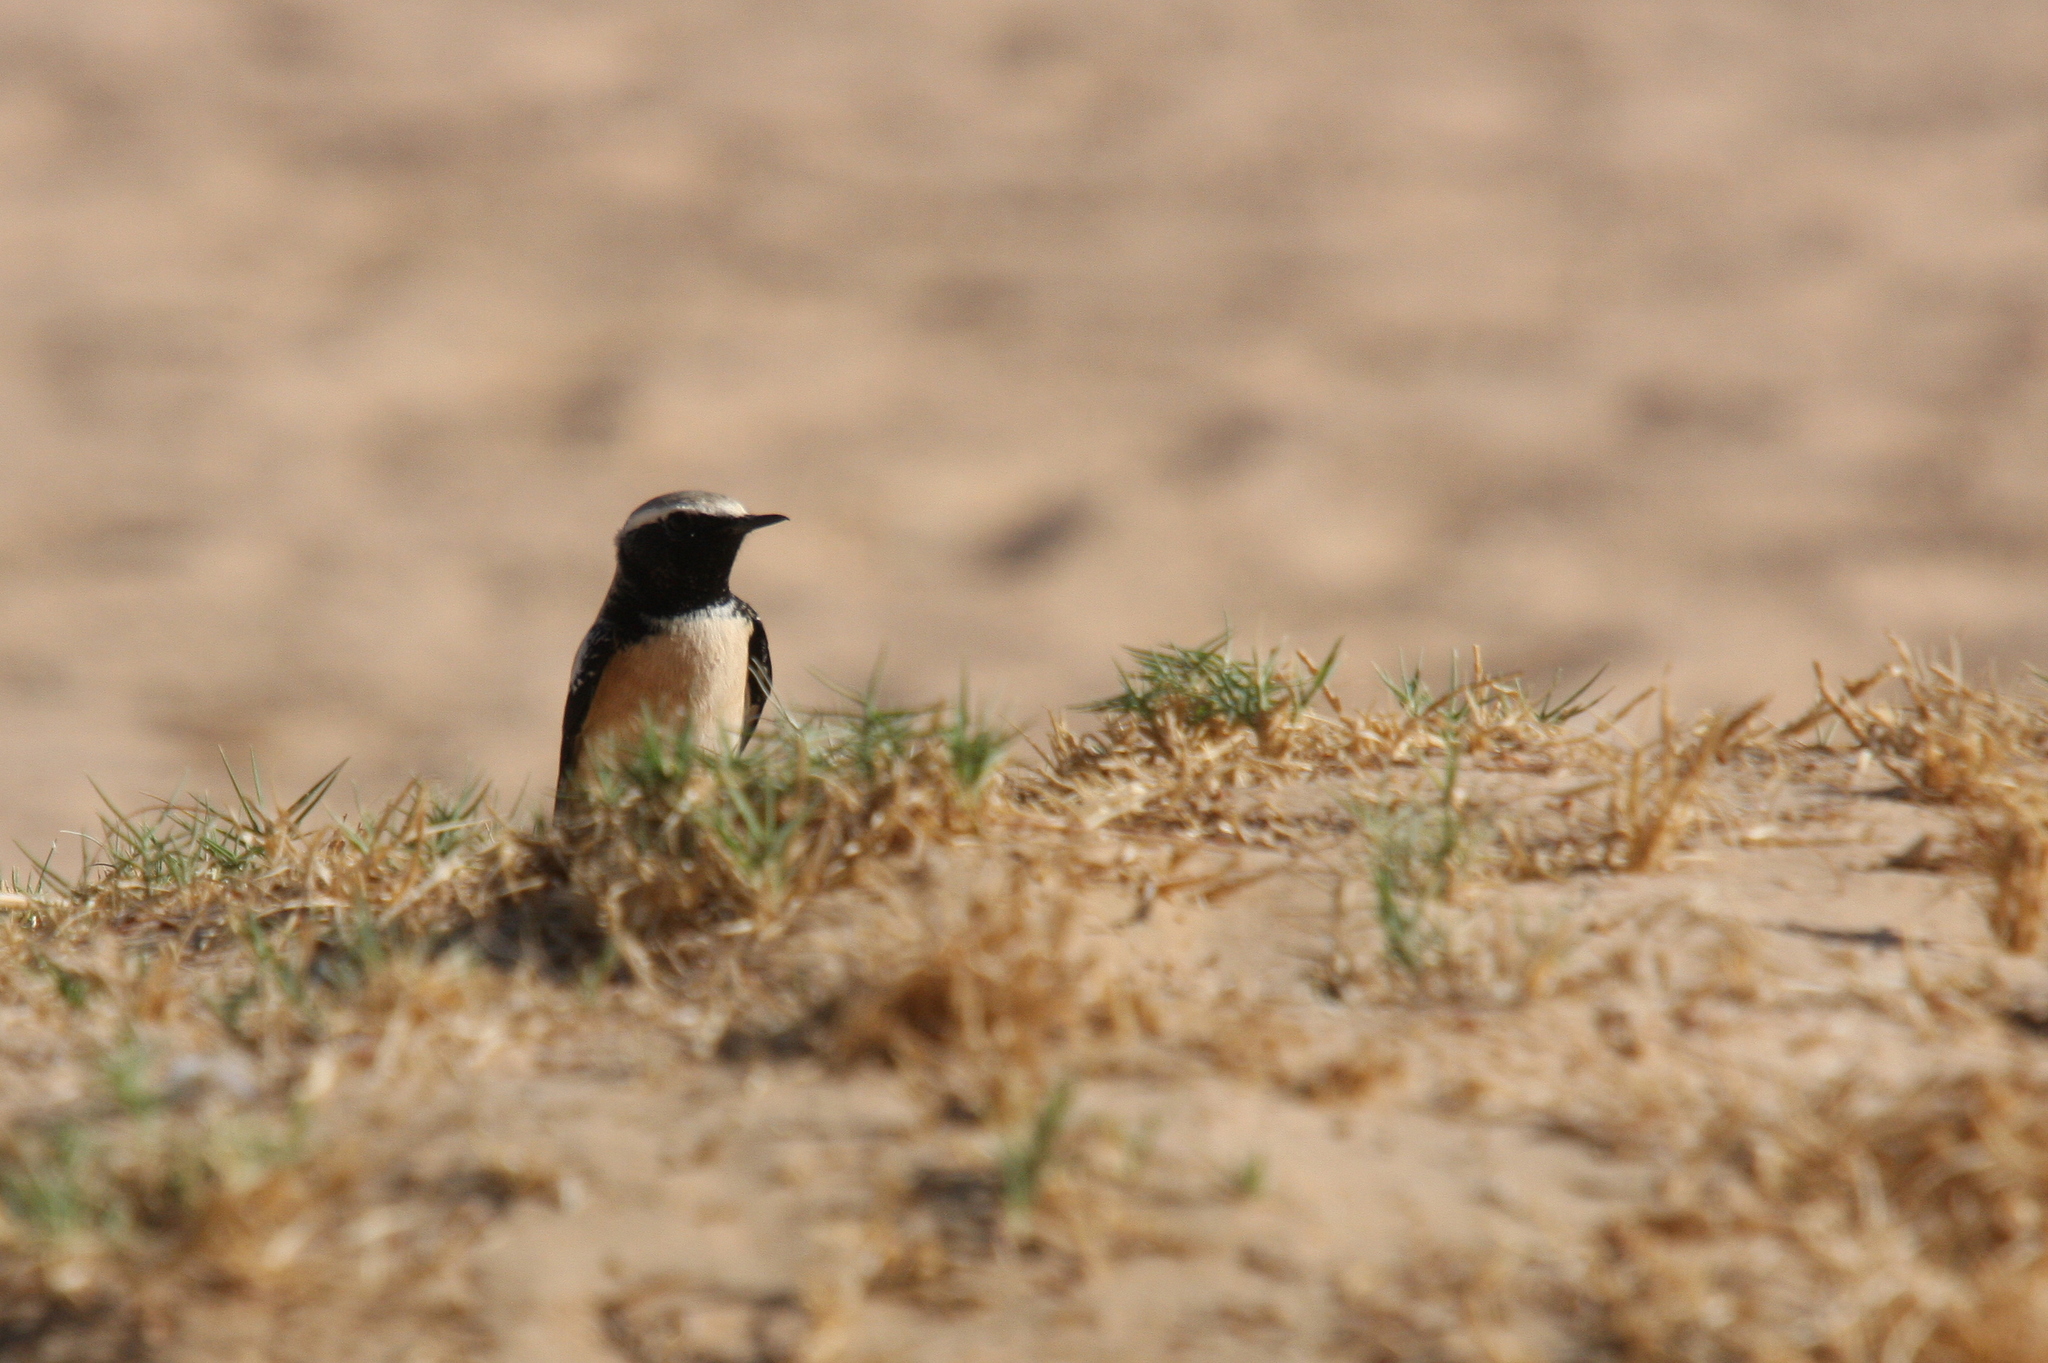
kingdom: Animalia
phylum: Chordata
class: Aves
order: Passeriformes
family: Muscicapidae
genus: Oenanthe
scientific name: Oenanthe deserti
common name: Desert wheatear
